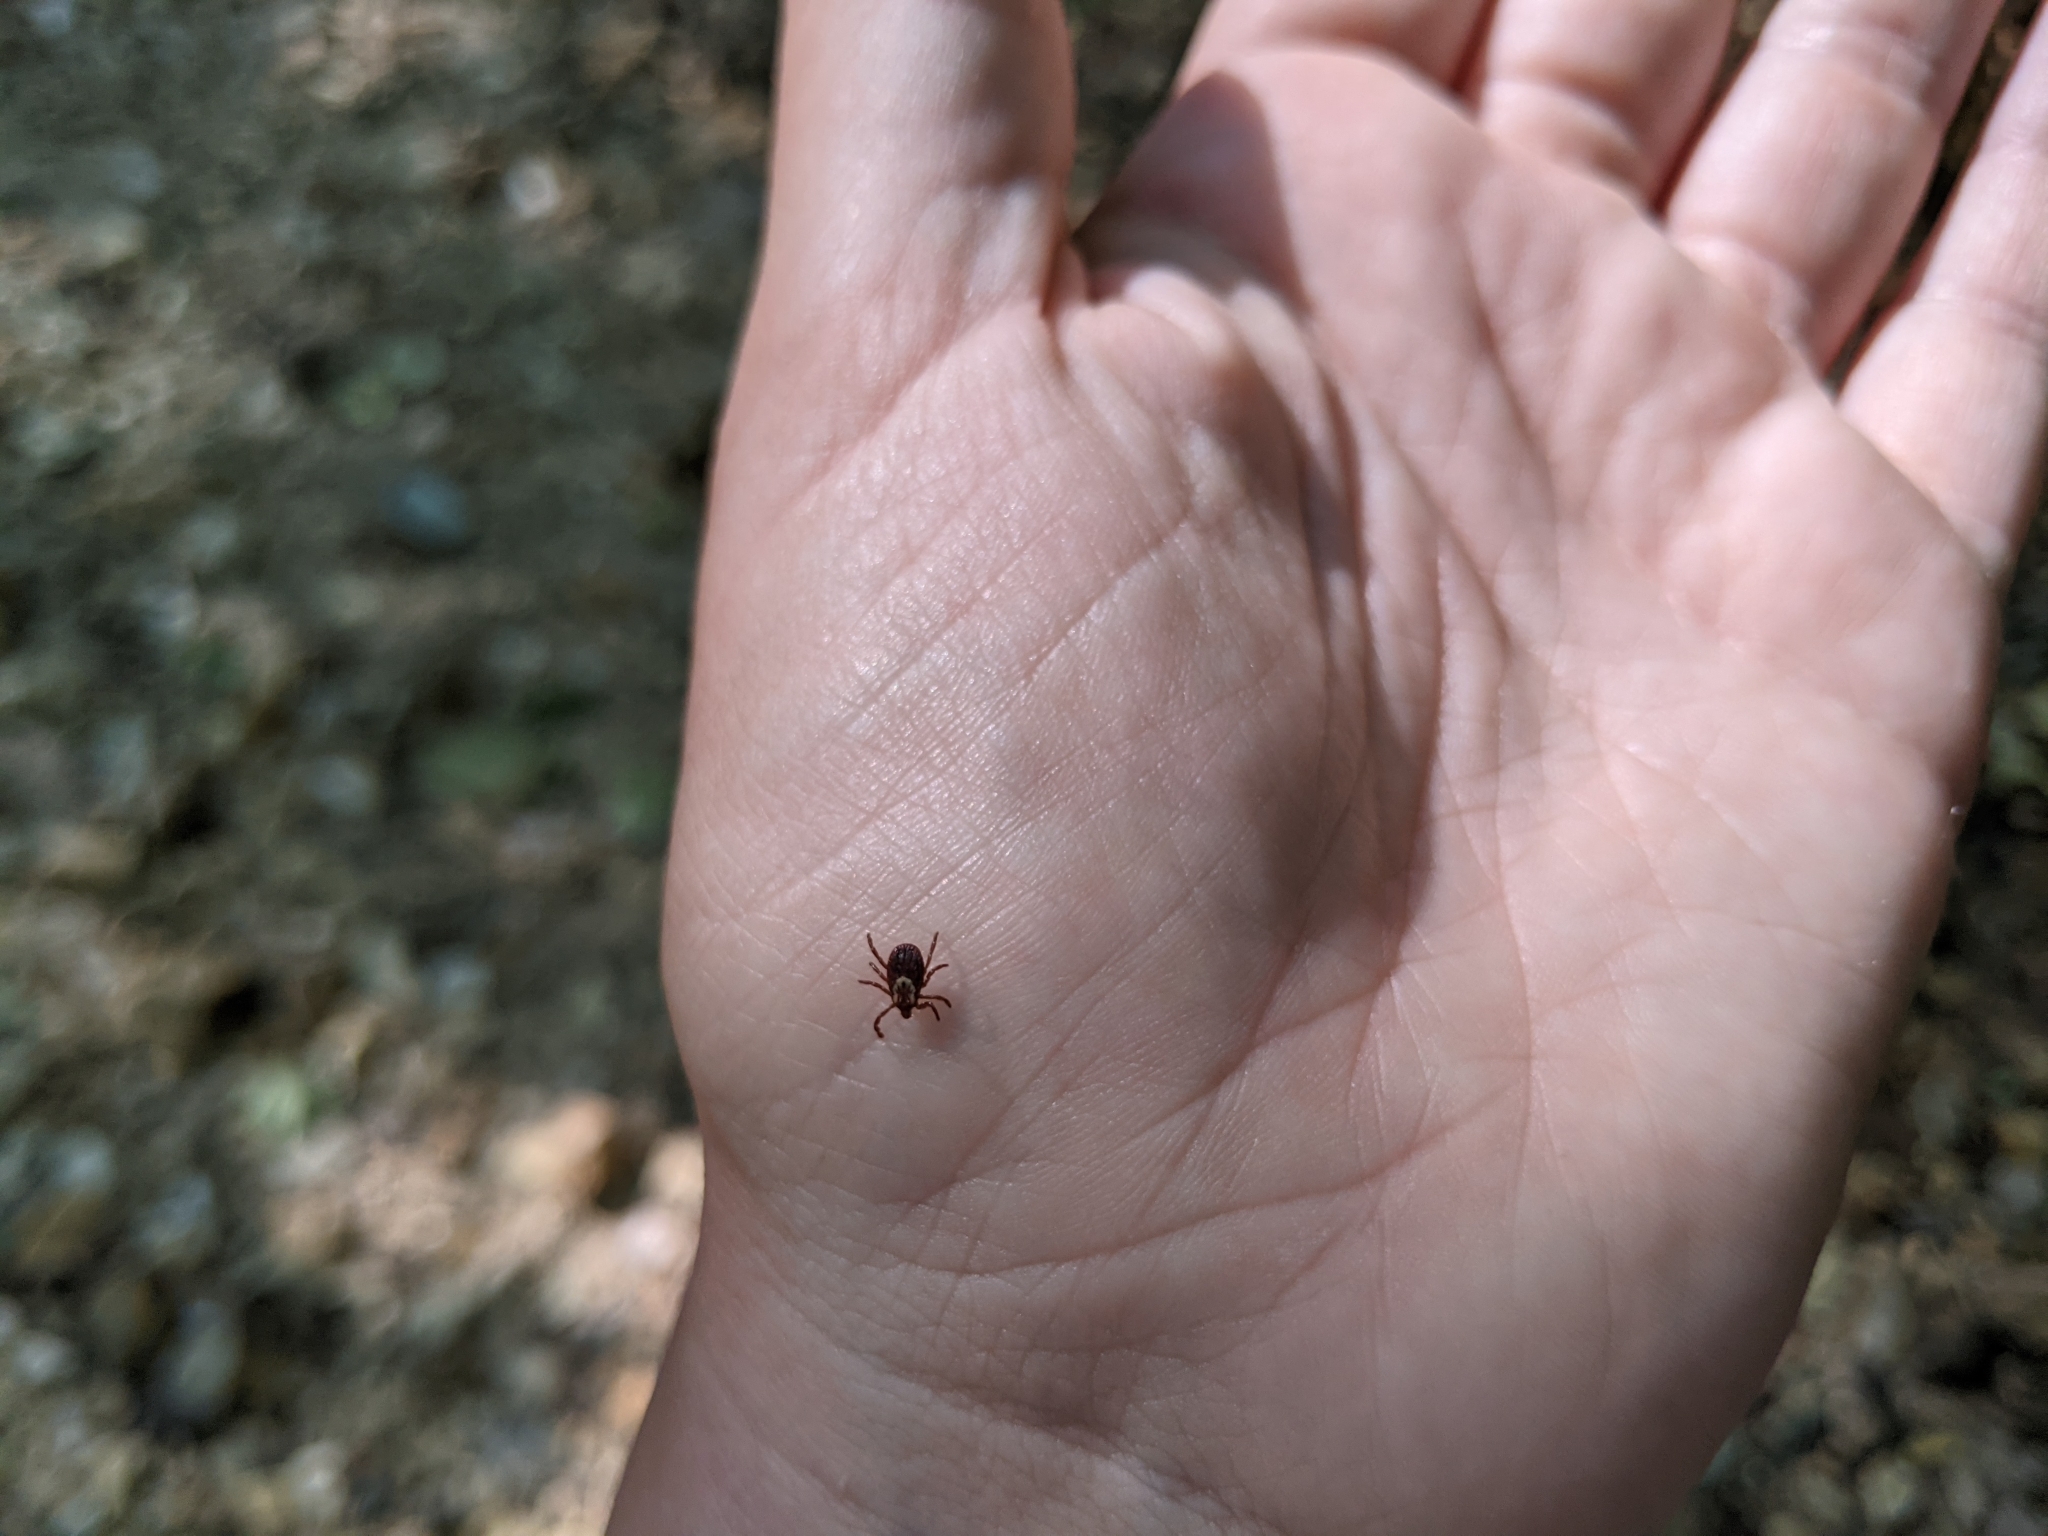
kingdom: Animalia
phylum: Arthropoda
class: Arachnida
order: Ixodida
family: Ixodidae
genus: Dermacentor
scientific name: Dermacentor variabilis
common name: American dog tick
